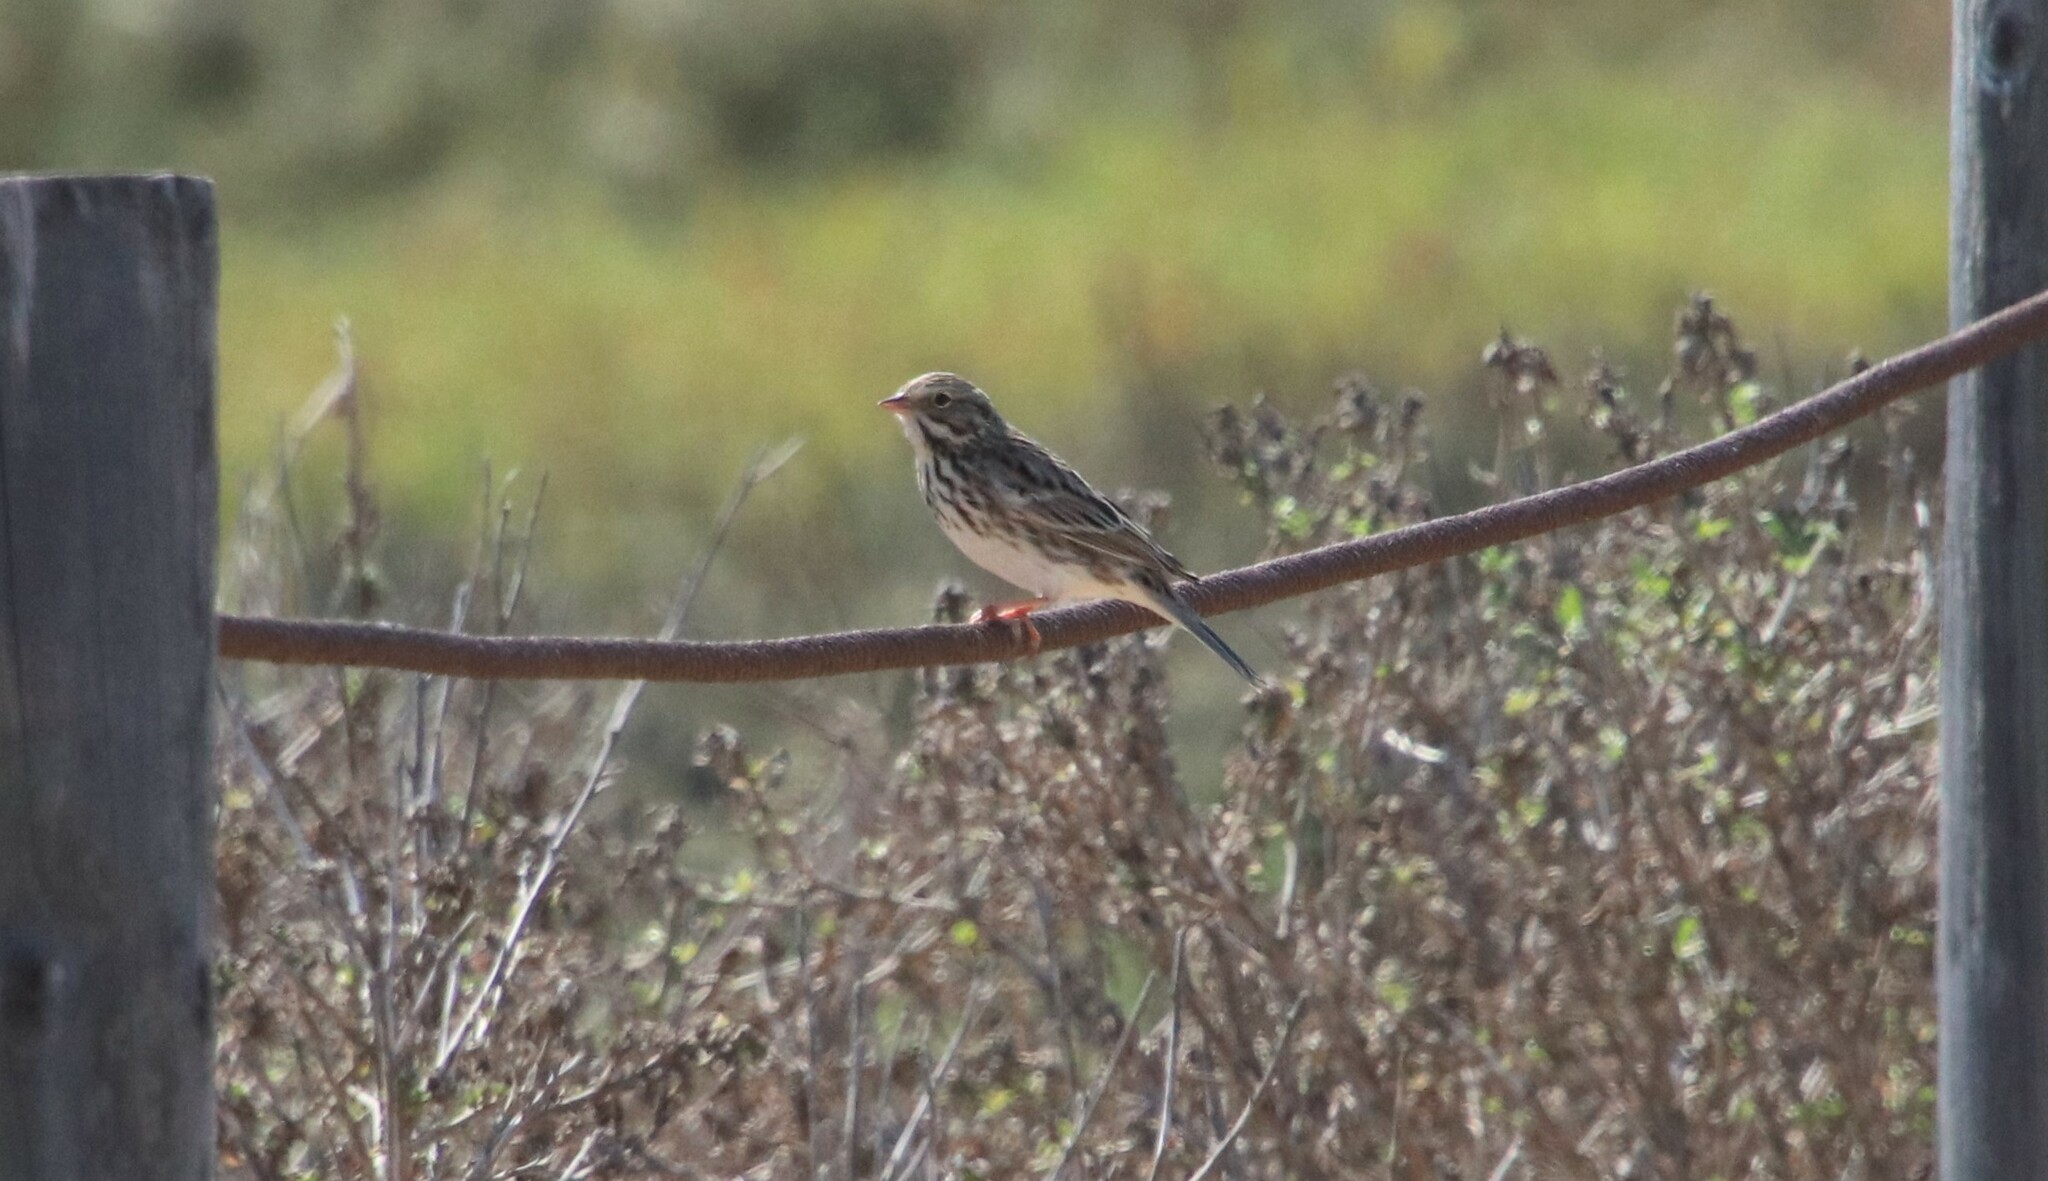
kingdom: Animalia
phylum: Chordata
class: Aves
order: Passeriformes
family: Passerellidae
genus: Passerculus
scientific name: Passerculus sandwichensis
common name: Savannah sparrow
